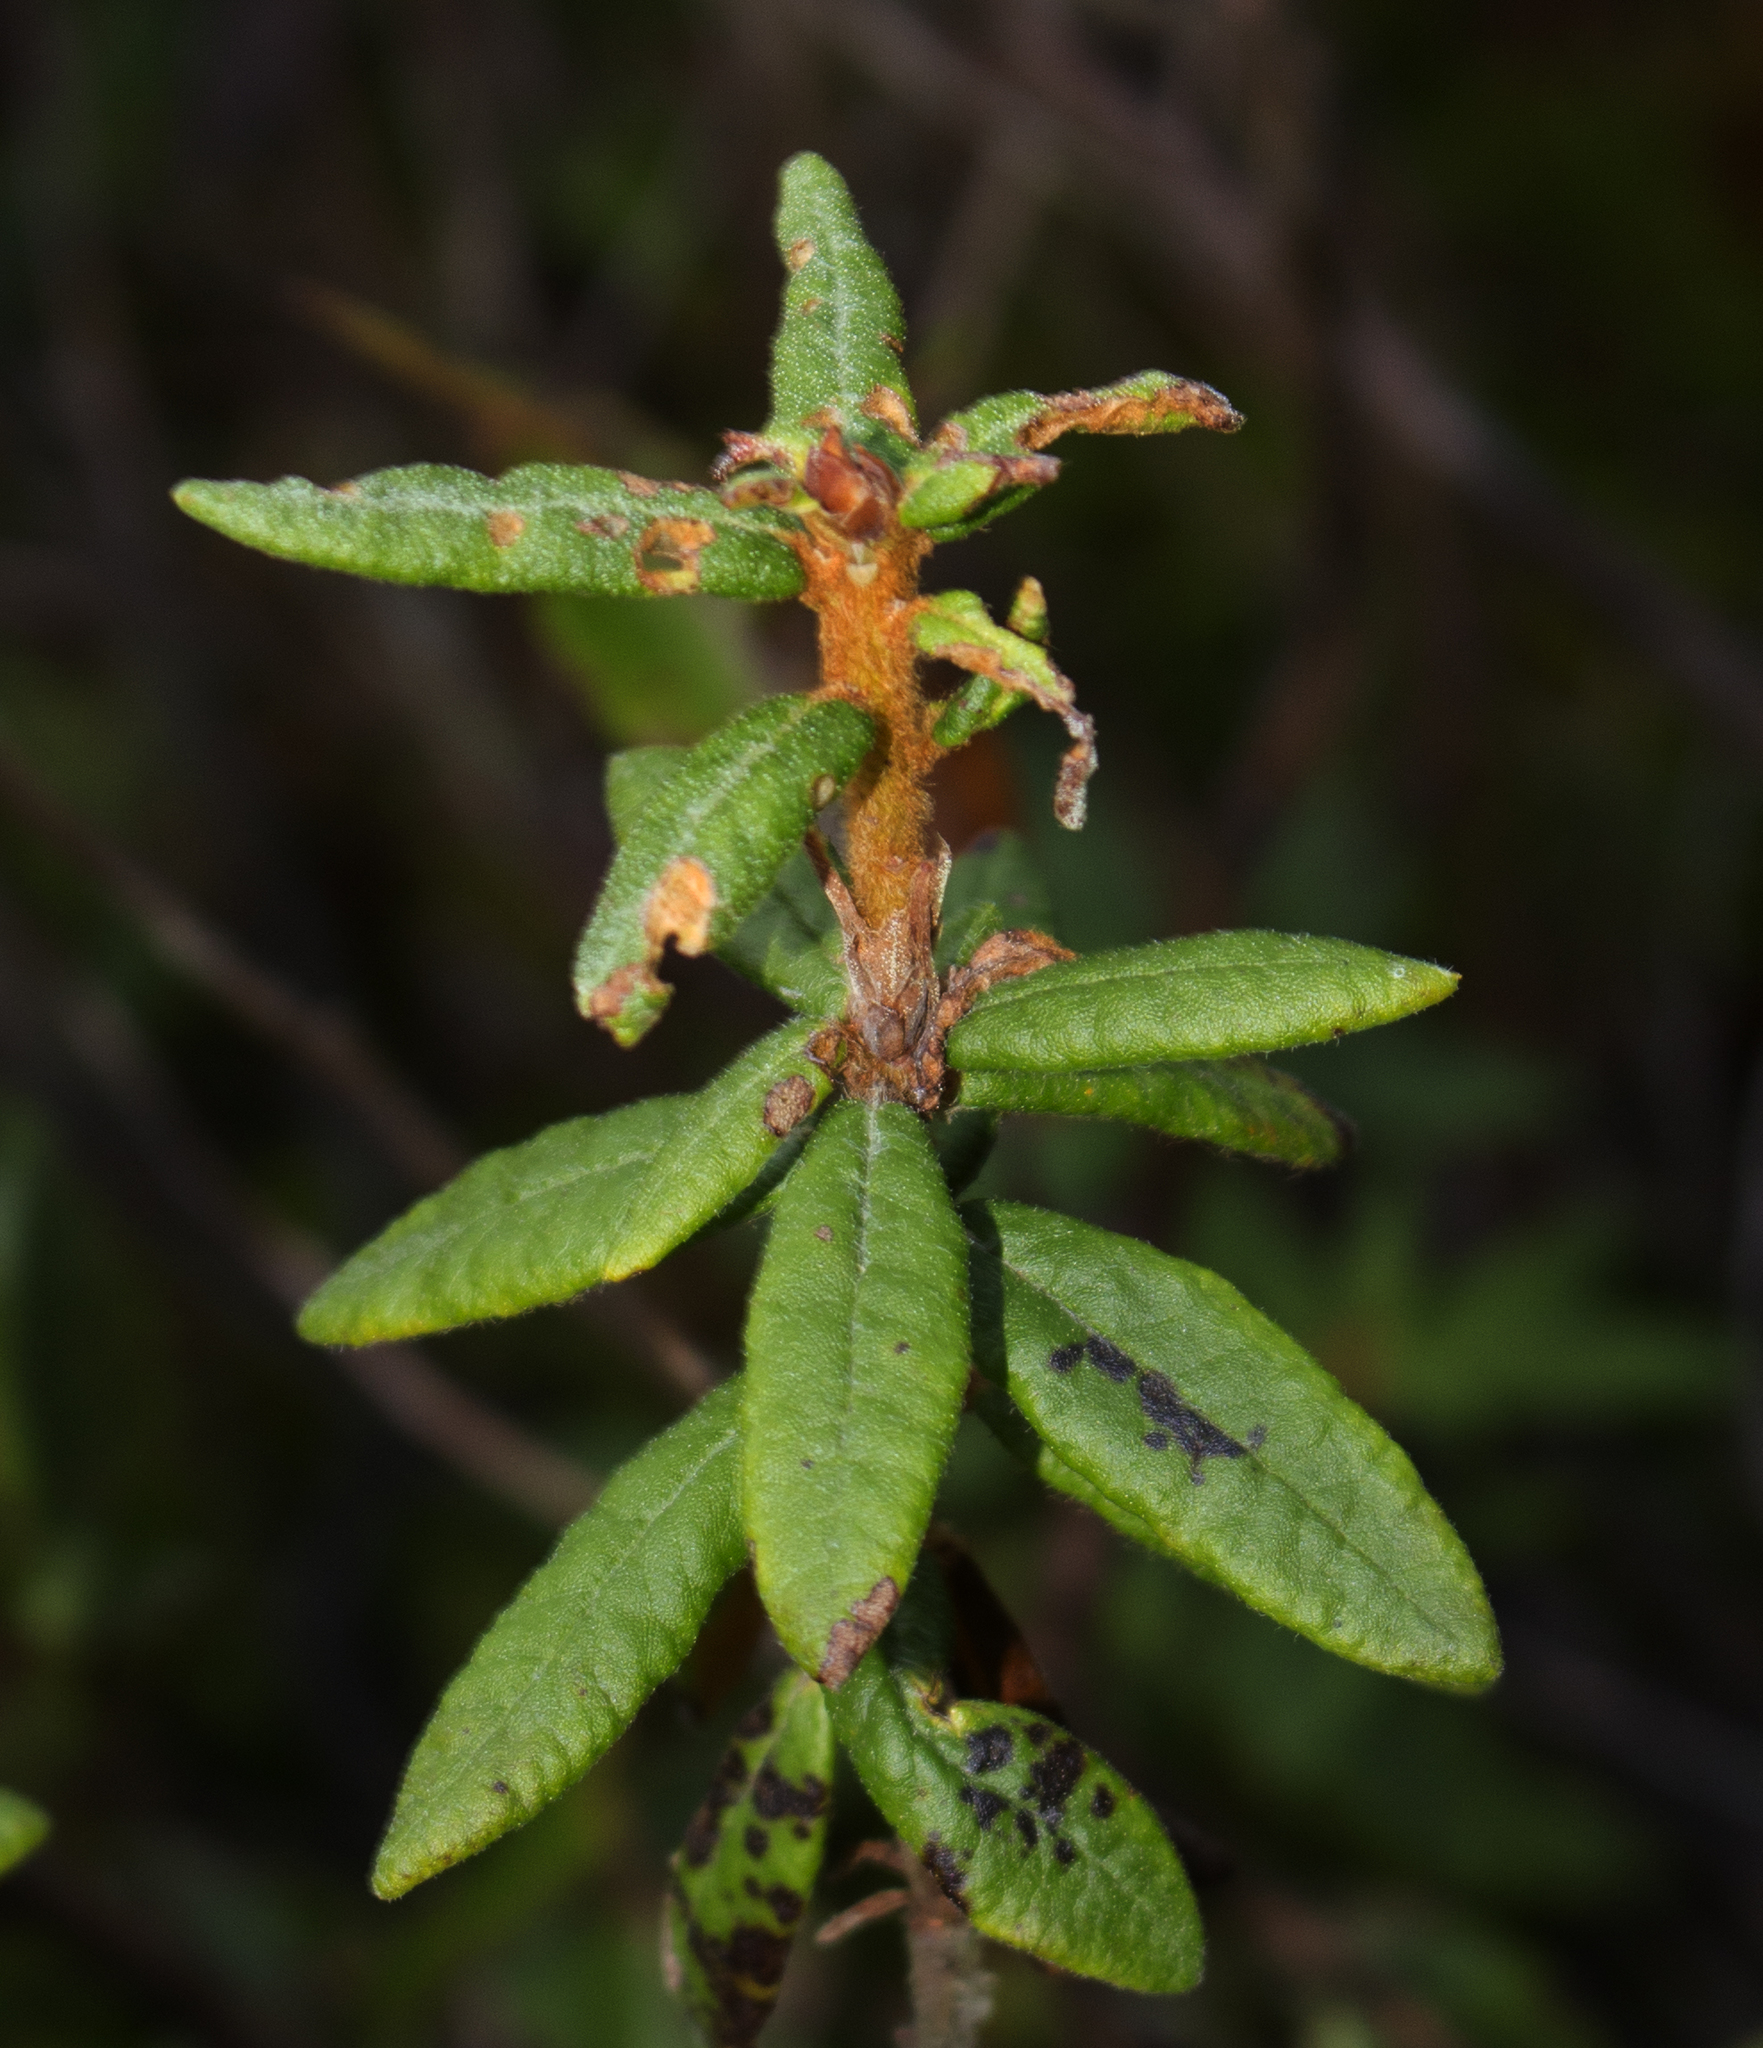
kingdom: Plantae
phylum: Tracheophyta
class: Magnoliopsida
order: Ericales
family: Ericaceae
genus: Rhododendron
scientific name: Rhododendron groenlandicum
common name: Bog labrador tea
